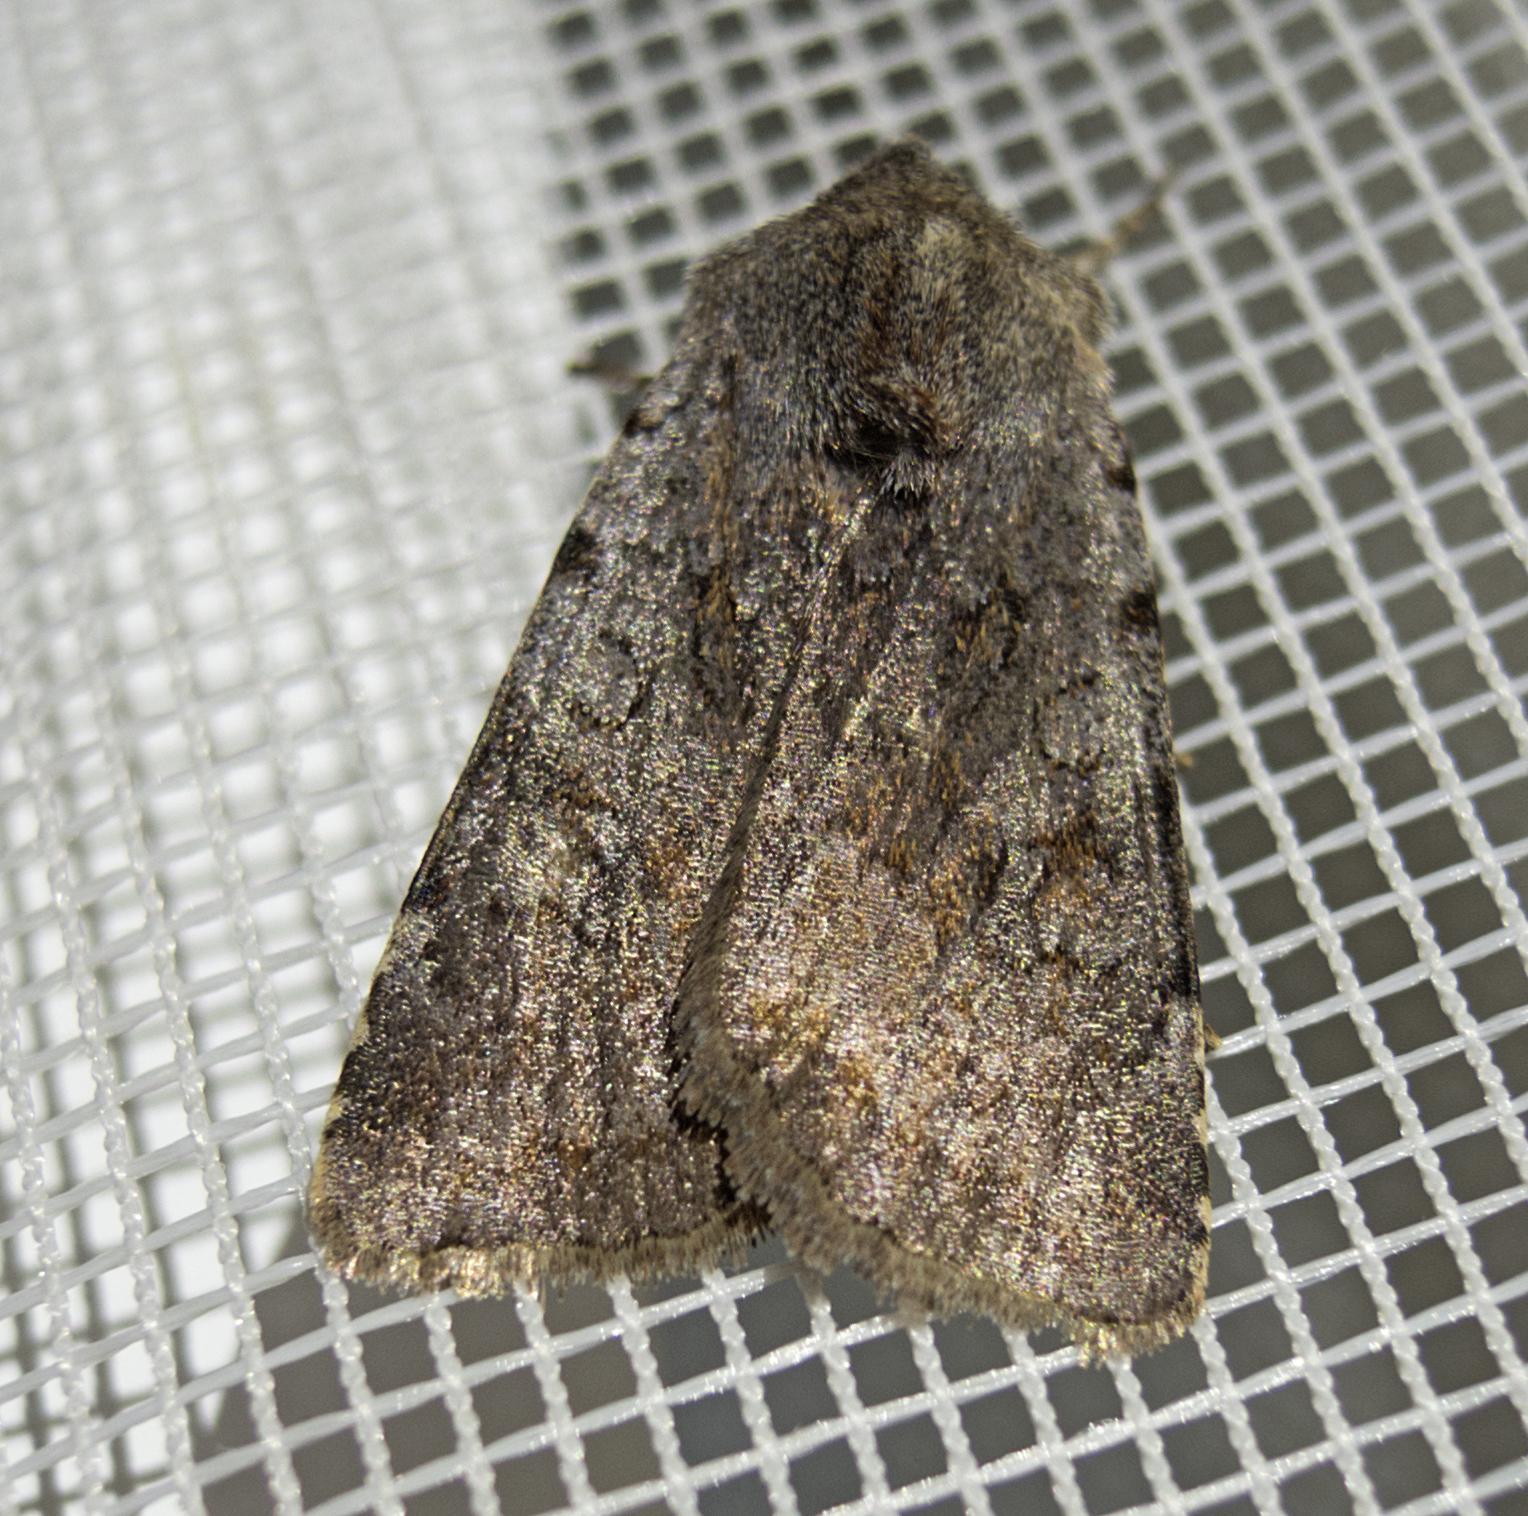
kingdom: Animalia
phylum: Arthropoda
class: Insecta
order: Lepidoptera
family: Noctuidae
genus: Cerastis
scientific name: Cerastis rubricosa
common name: Red chestnut
